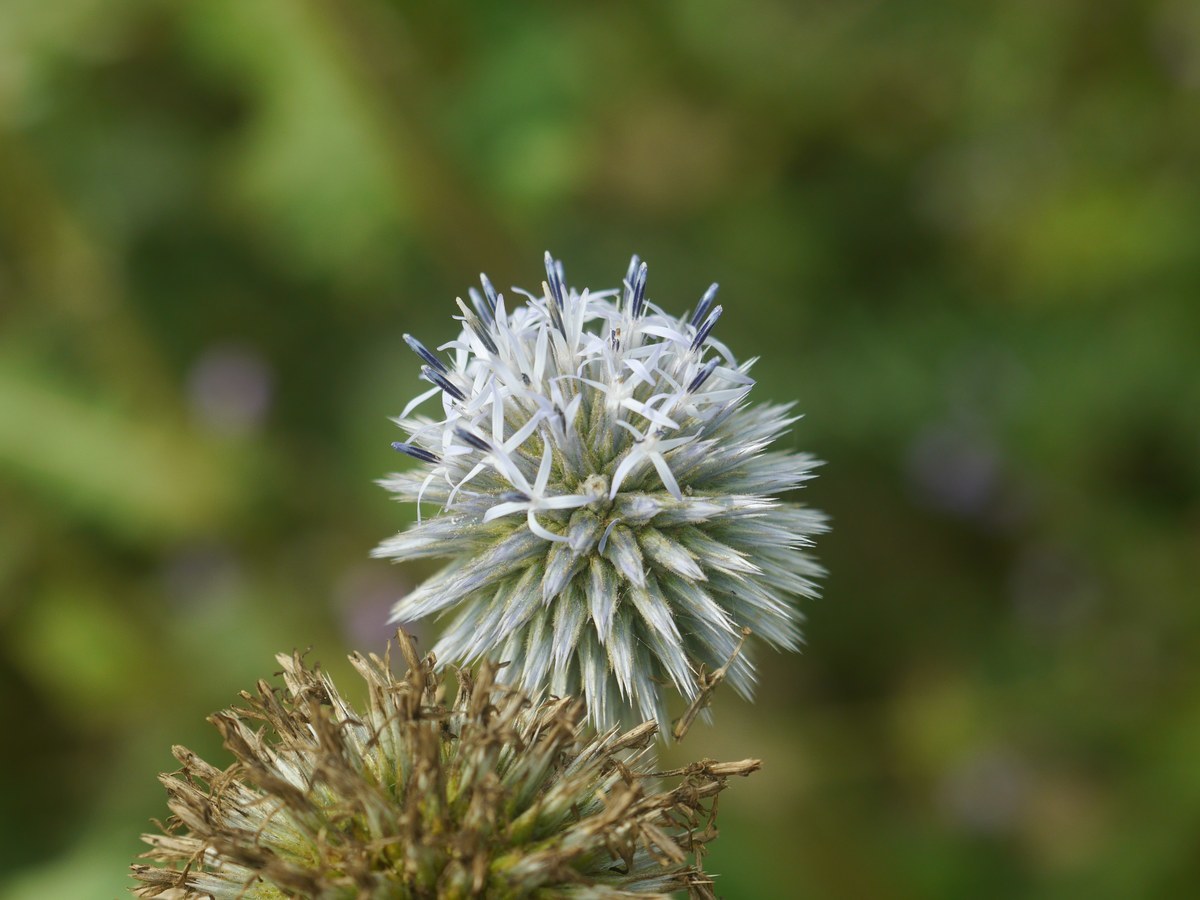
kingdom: Plantae
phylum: Tracheophyta
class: Magnoliopsida
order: Asterales
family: Asteraceae
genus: Echinops
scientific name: Echinops sphaerocephalus
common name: Glandular globe-thistle
